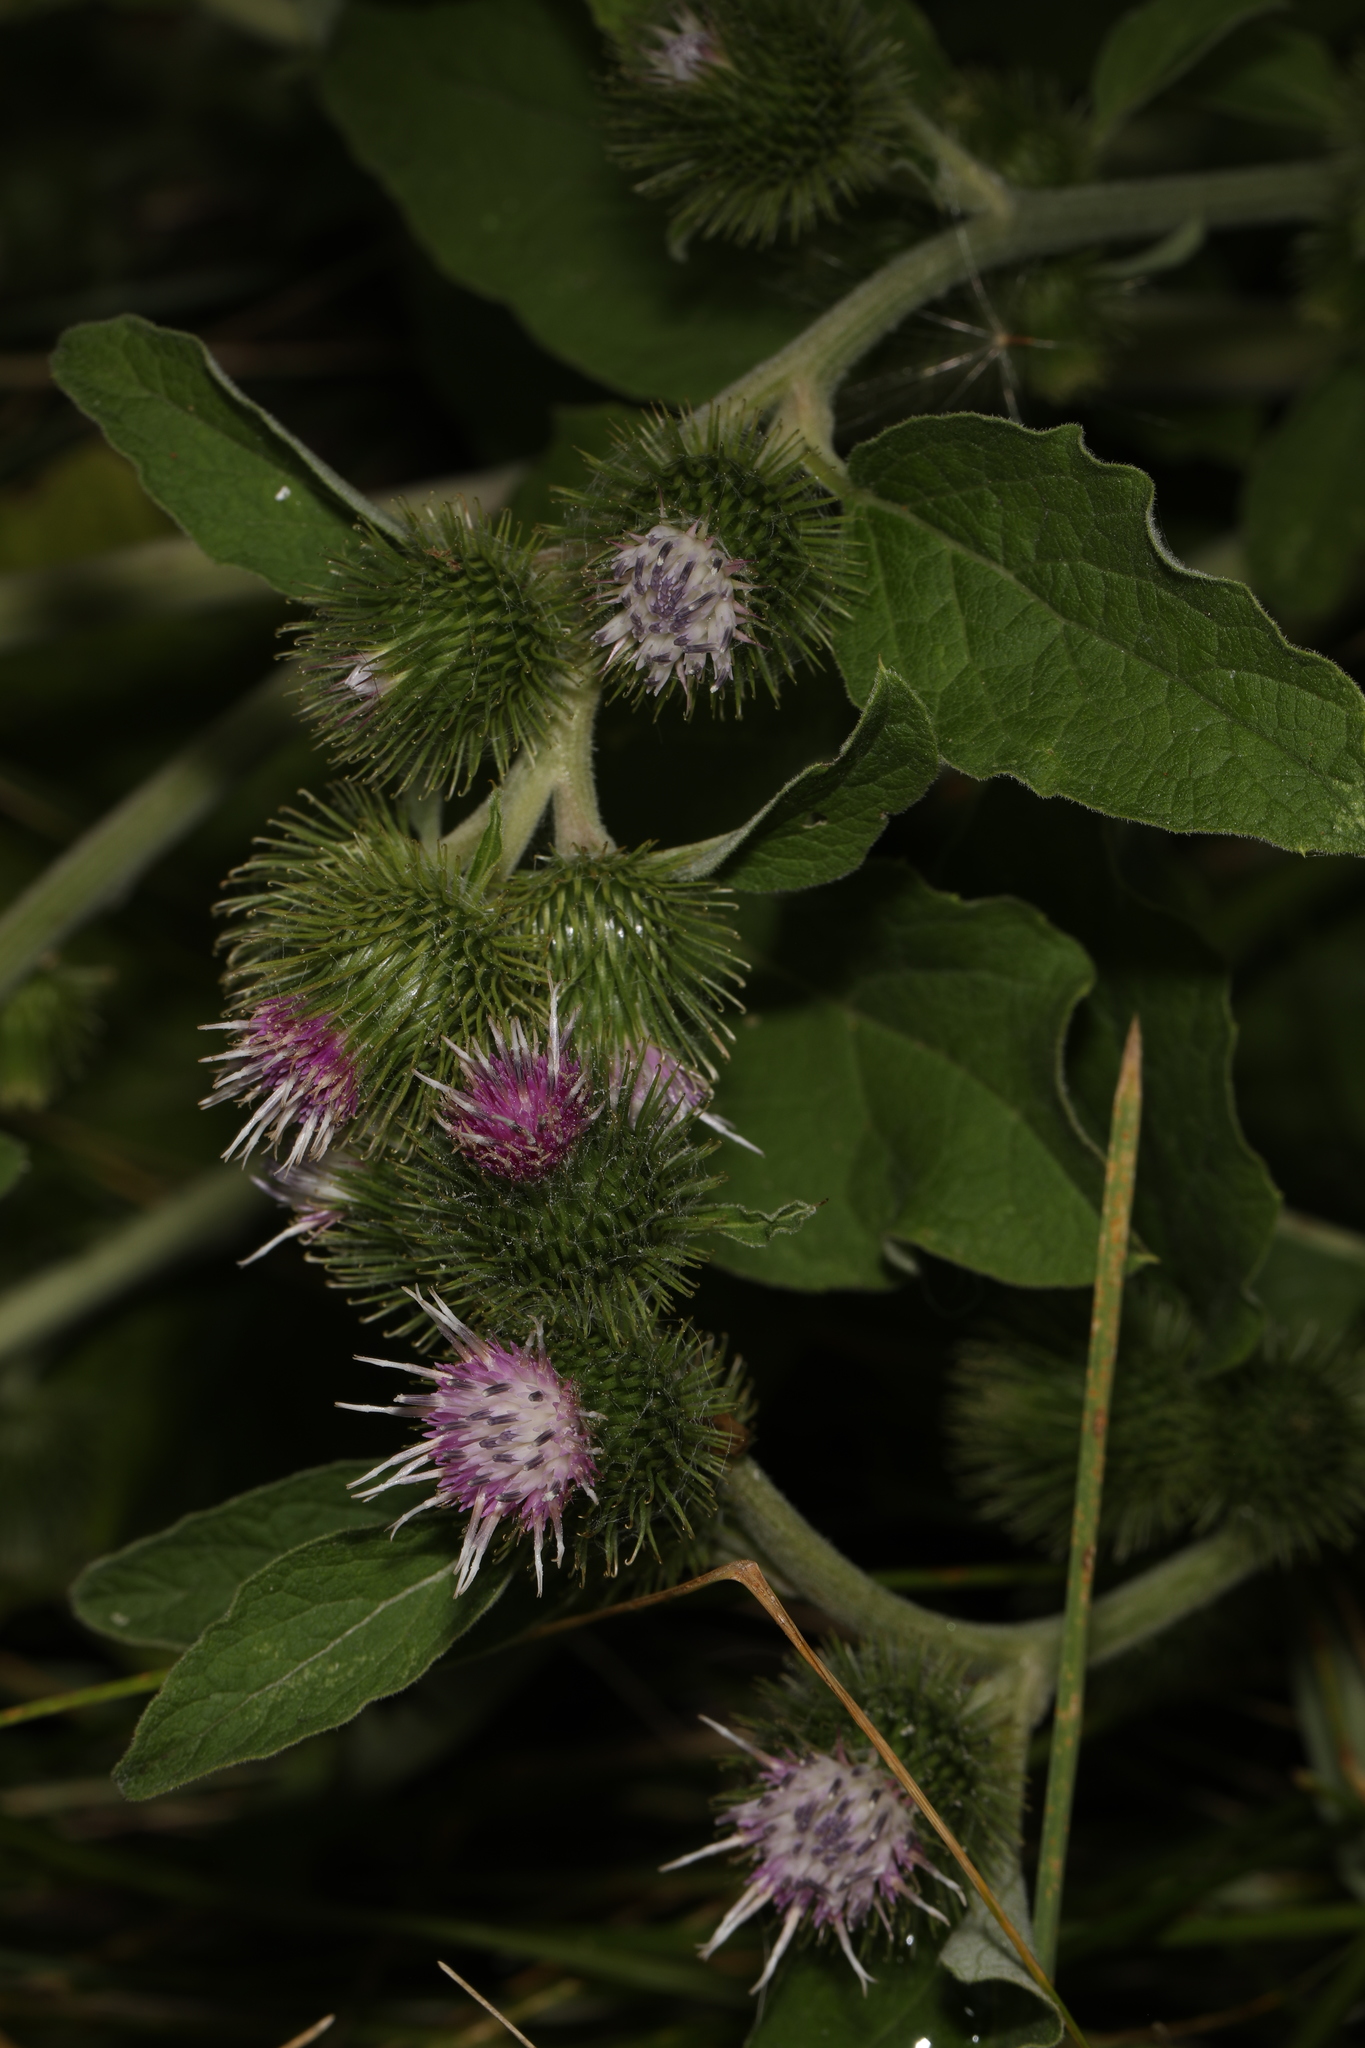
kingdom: Plantae
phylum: Tracheophyta
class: Magnoliopsida
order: Asterales
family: Asteraceae
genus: Arctium
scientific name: Arctium minus
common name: Lesser burdock
